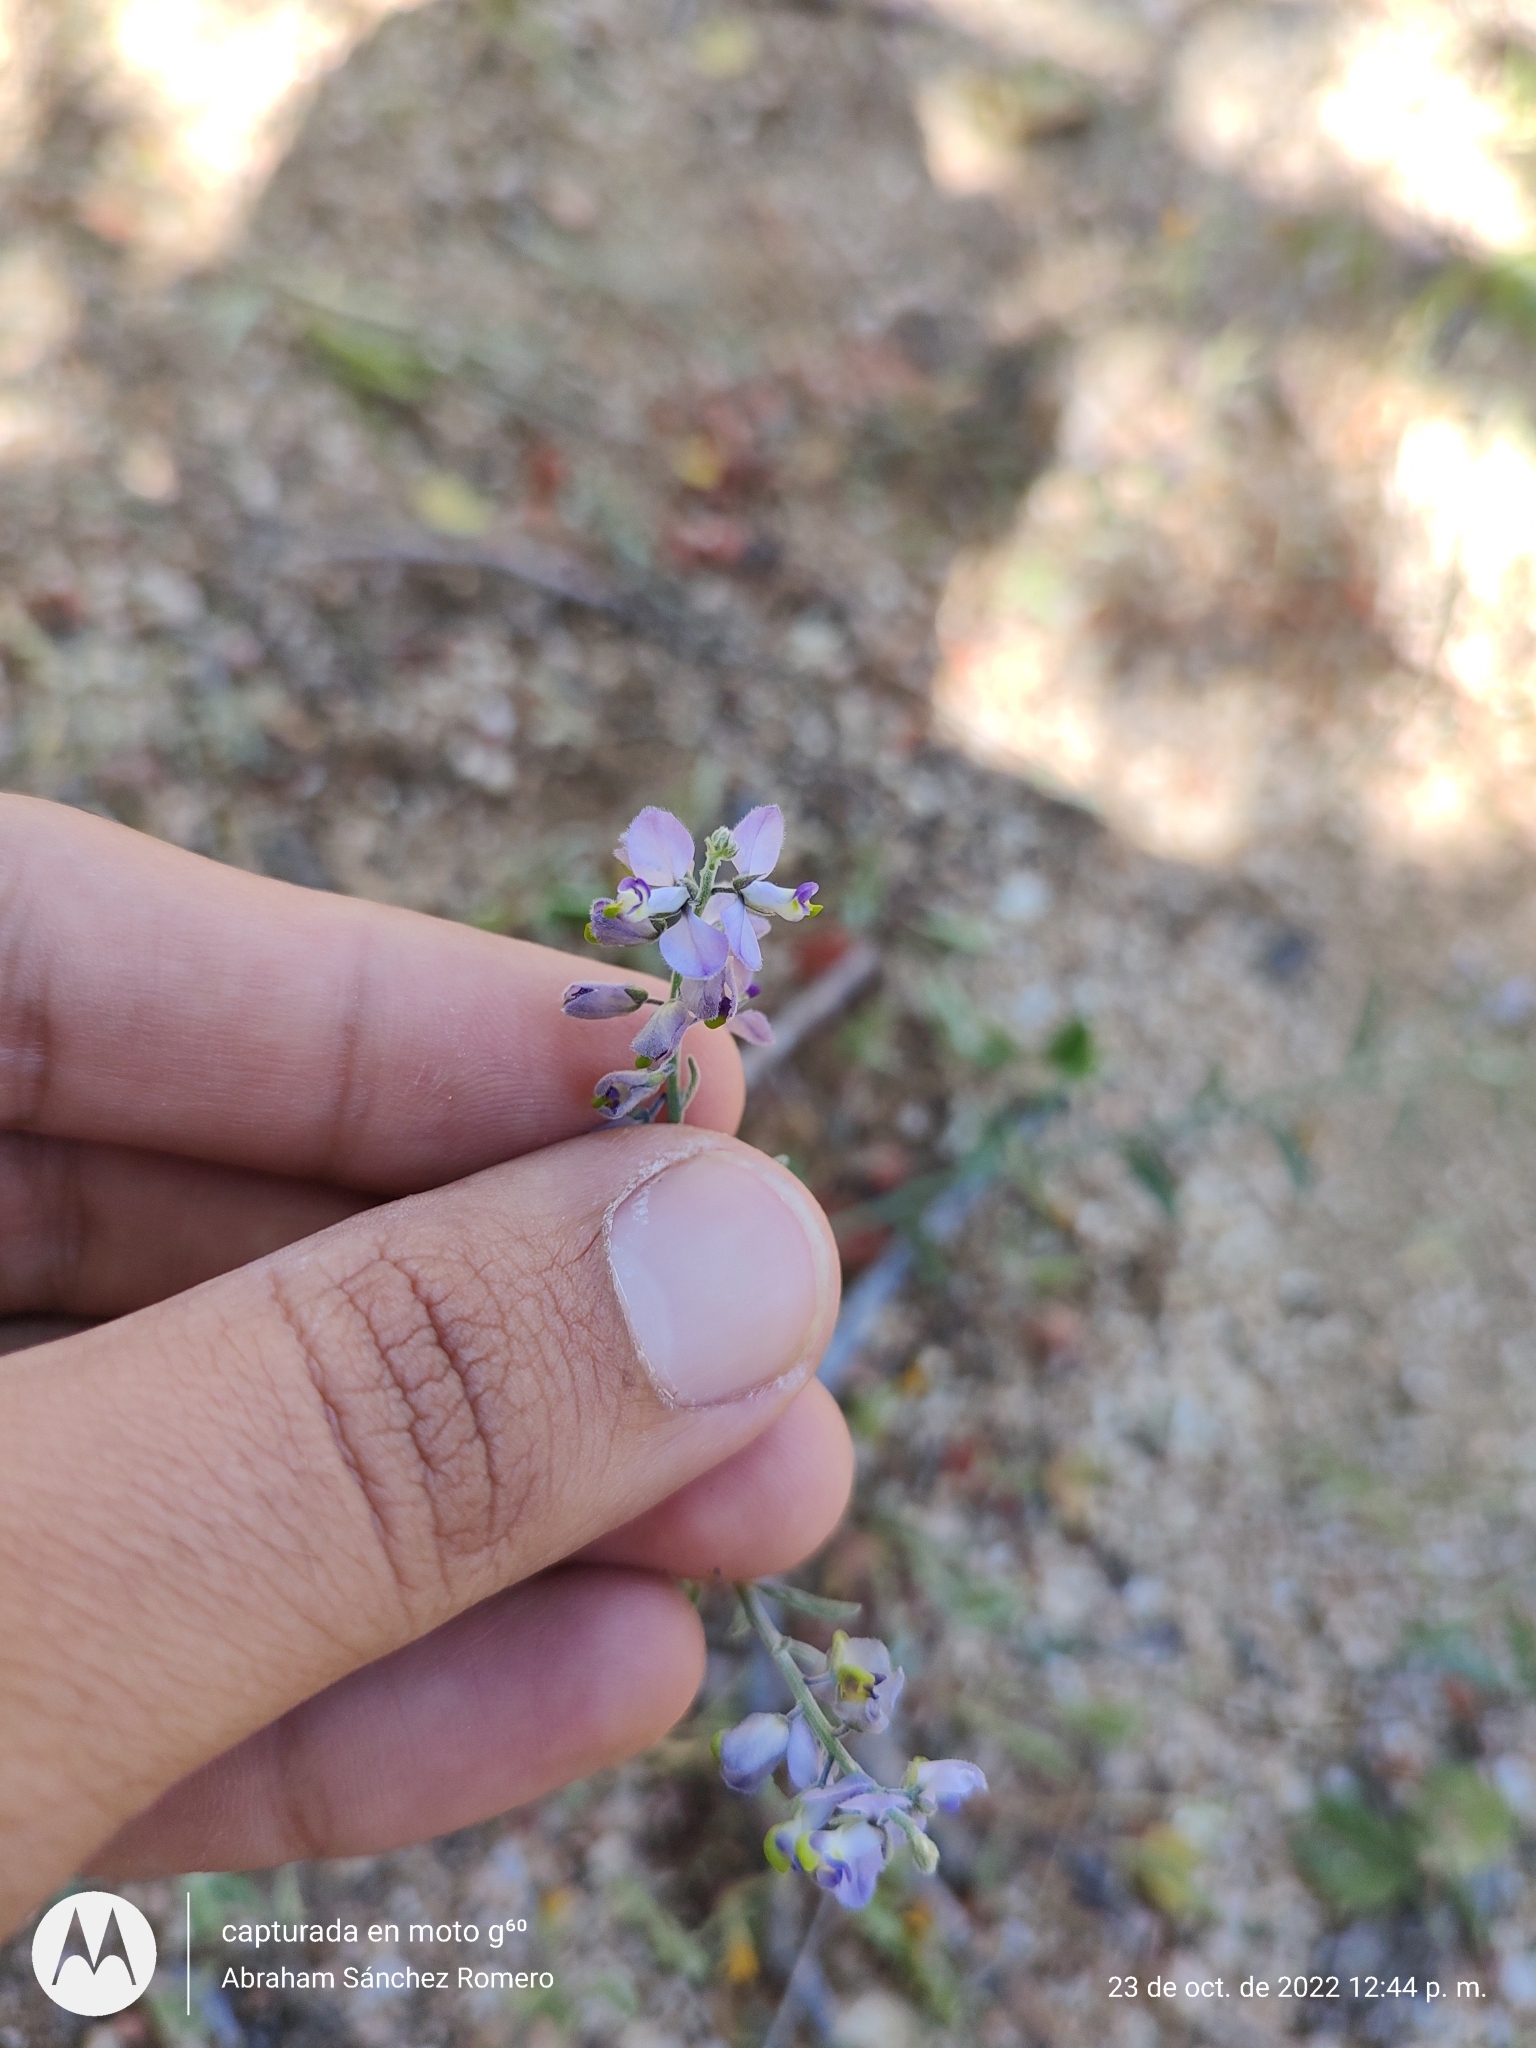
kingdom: Plantae
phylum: Tracheophyta
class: Magnoliopsida
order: Fabales
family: Polygalaceae
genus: Polygala
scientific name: Polygala magdalenae
